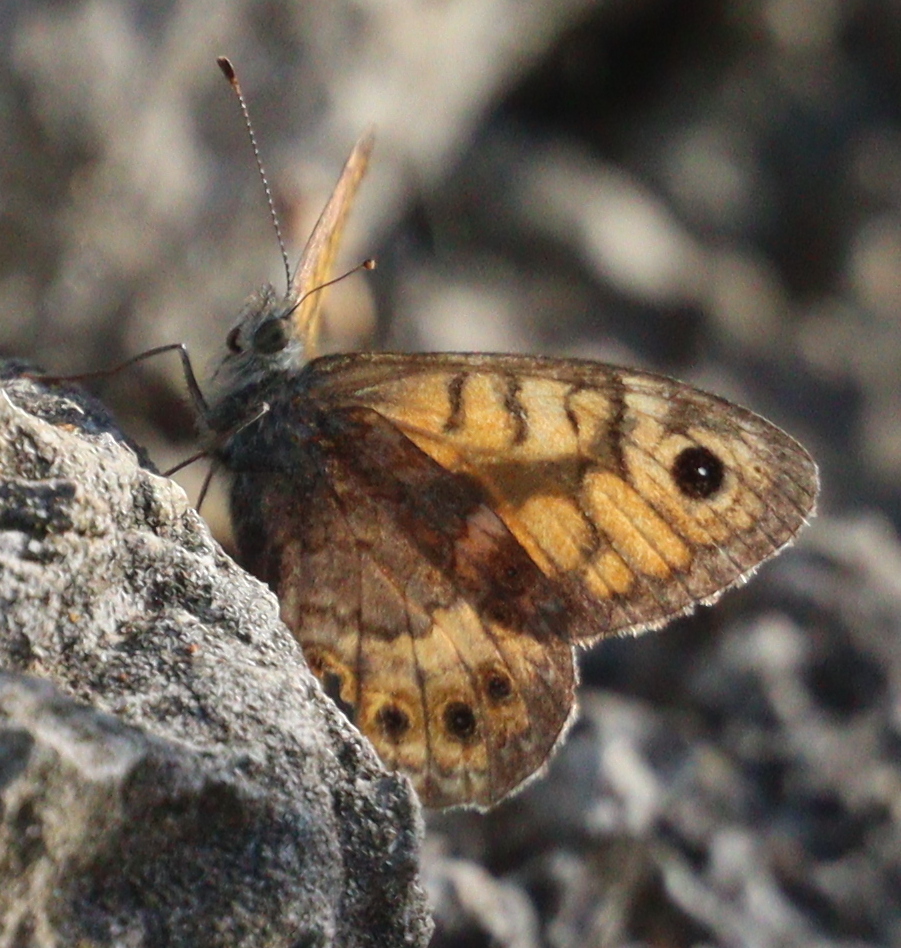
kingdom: Animalia
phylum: Arthropoda
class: Insecta
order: Lepidoptera
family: Nymphalidae
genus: Pararge
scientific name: Pararge Lasiommata megera
